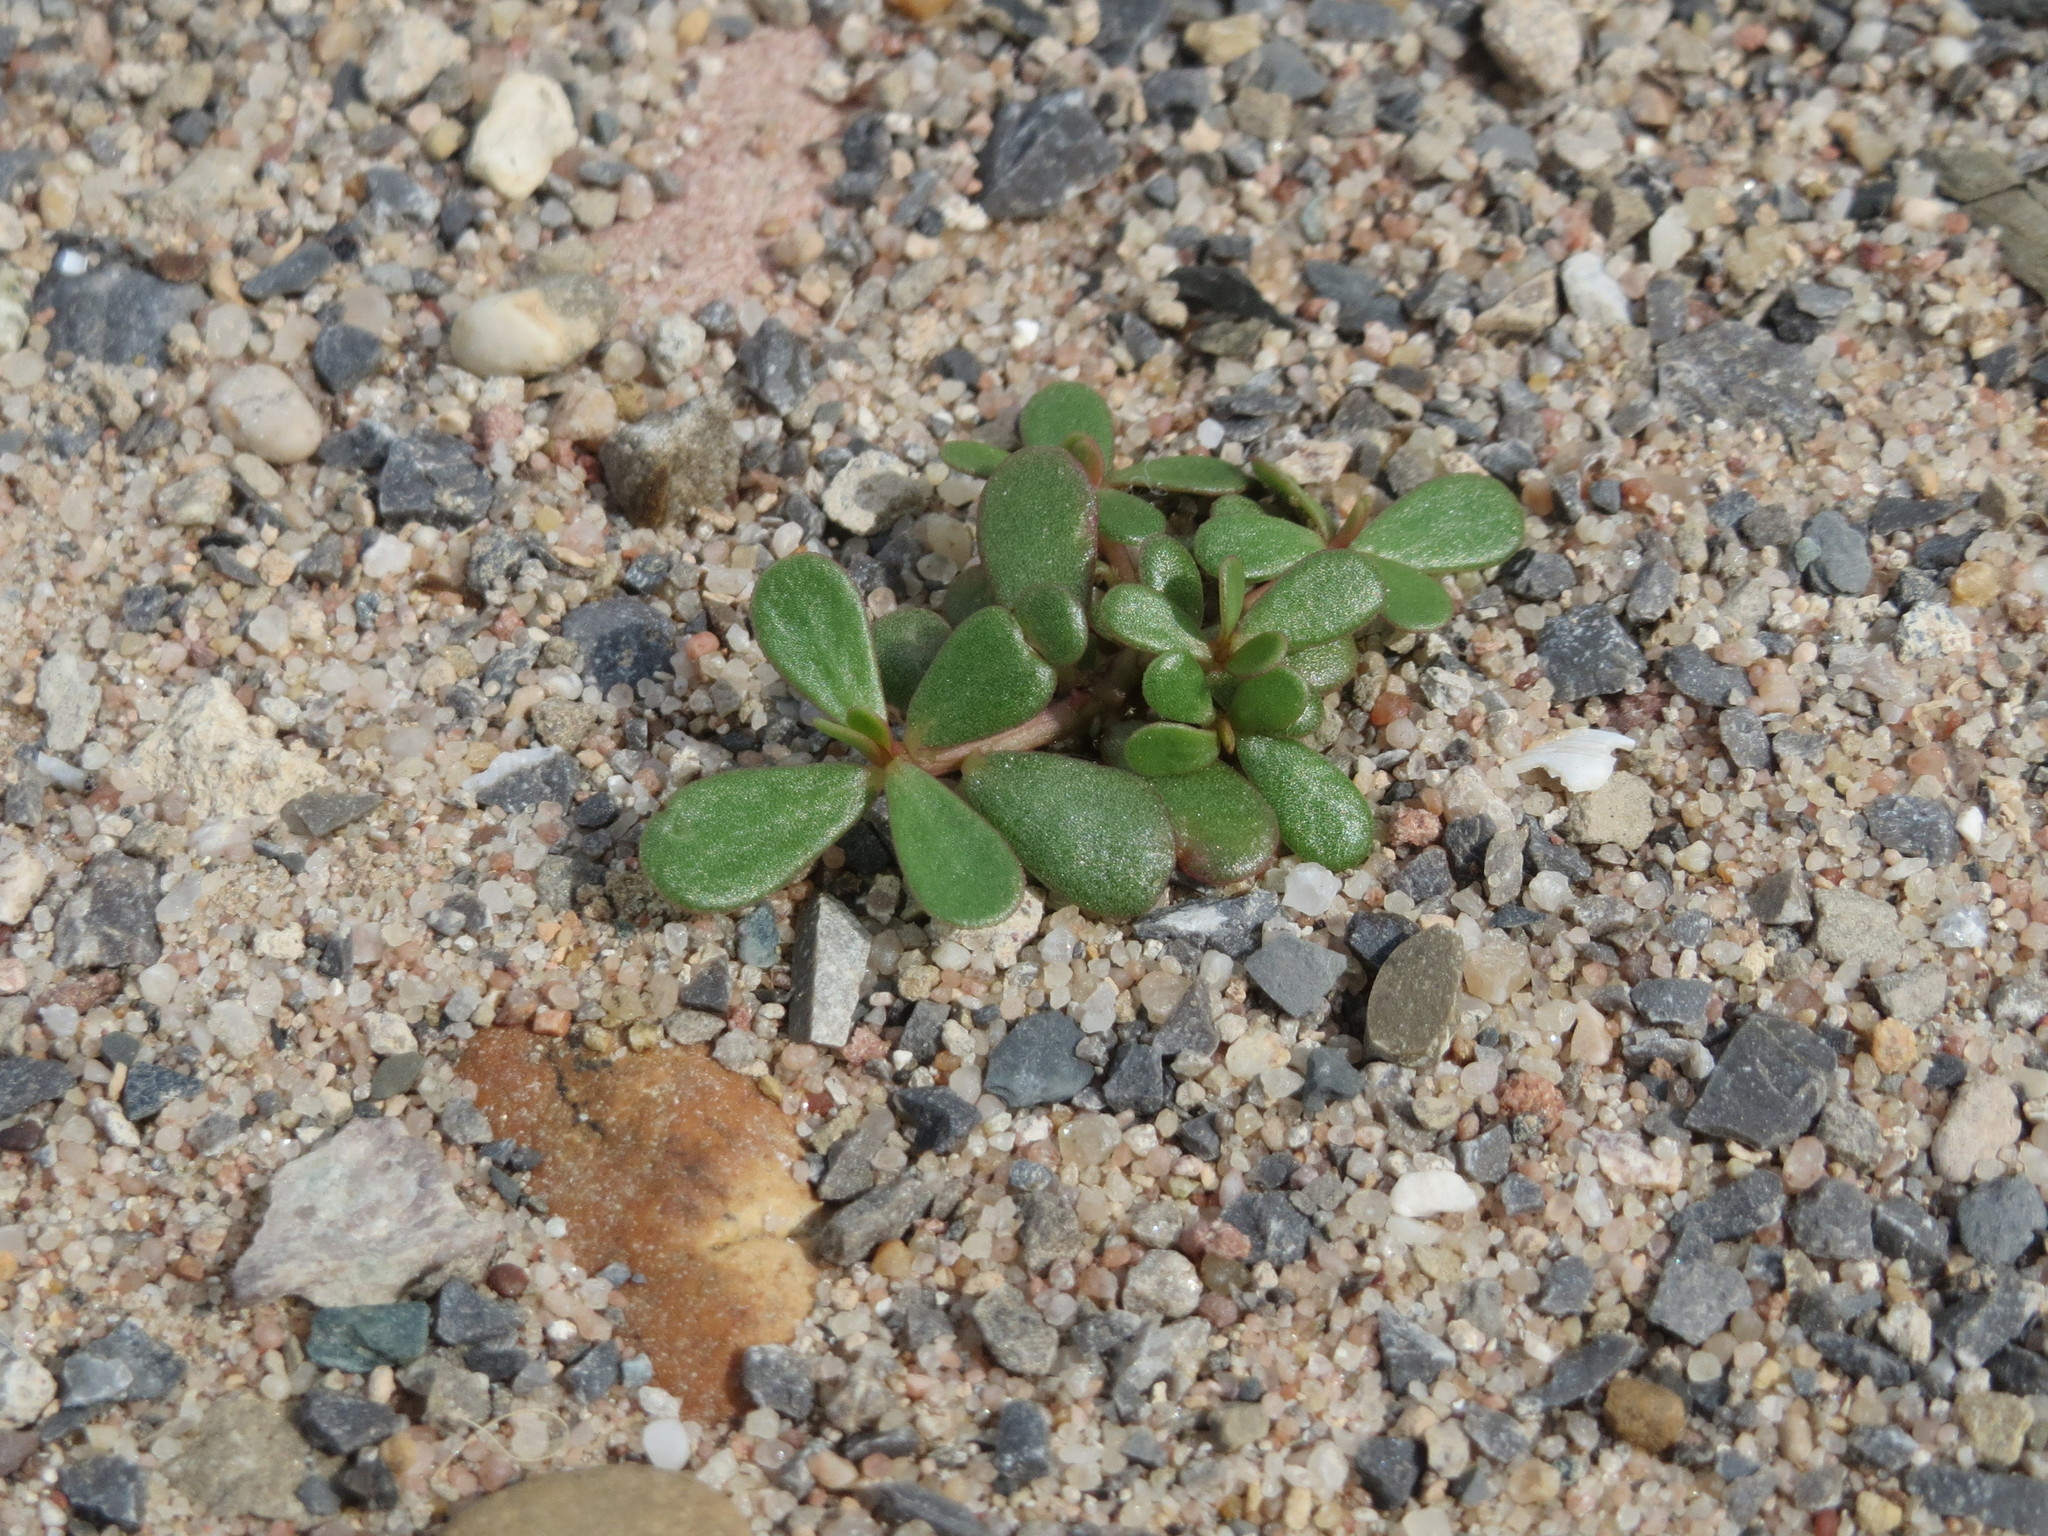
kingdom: Plantae
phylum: Tracheophyta
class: Magnoliopsida
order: Caryophyllales
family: Portulacaceae
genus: Portulaca
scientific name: Portulaca oleracea
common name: Common purslane
